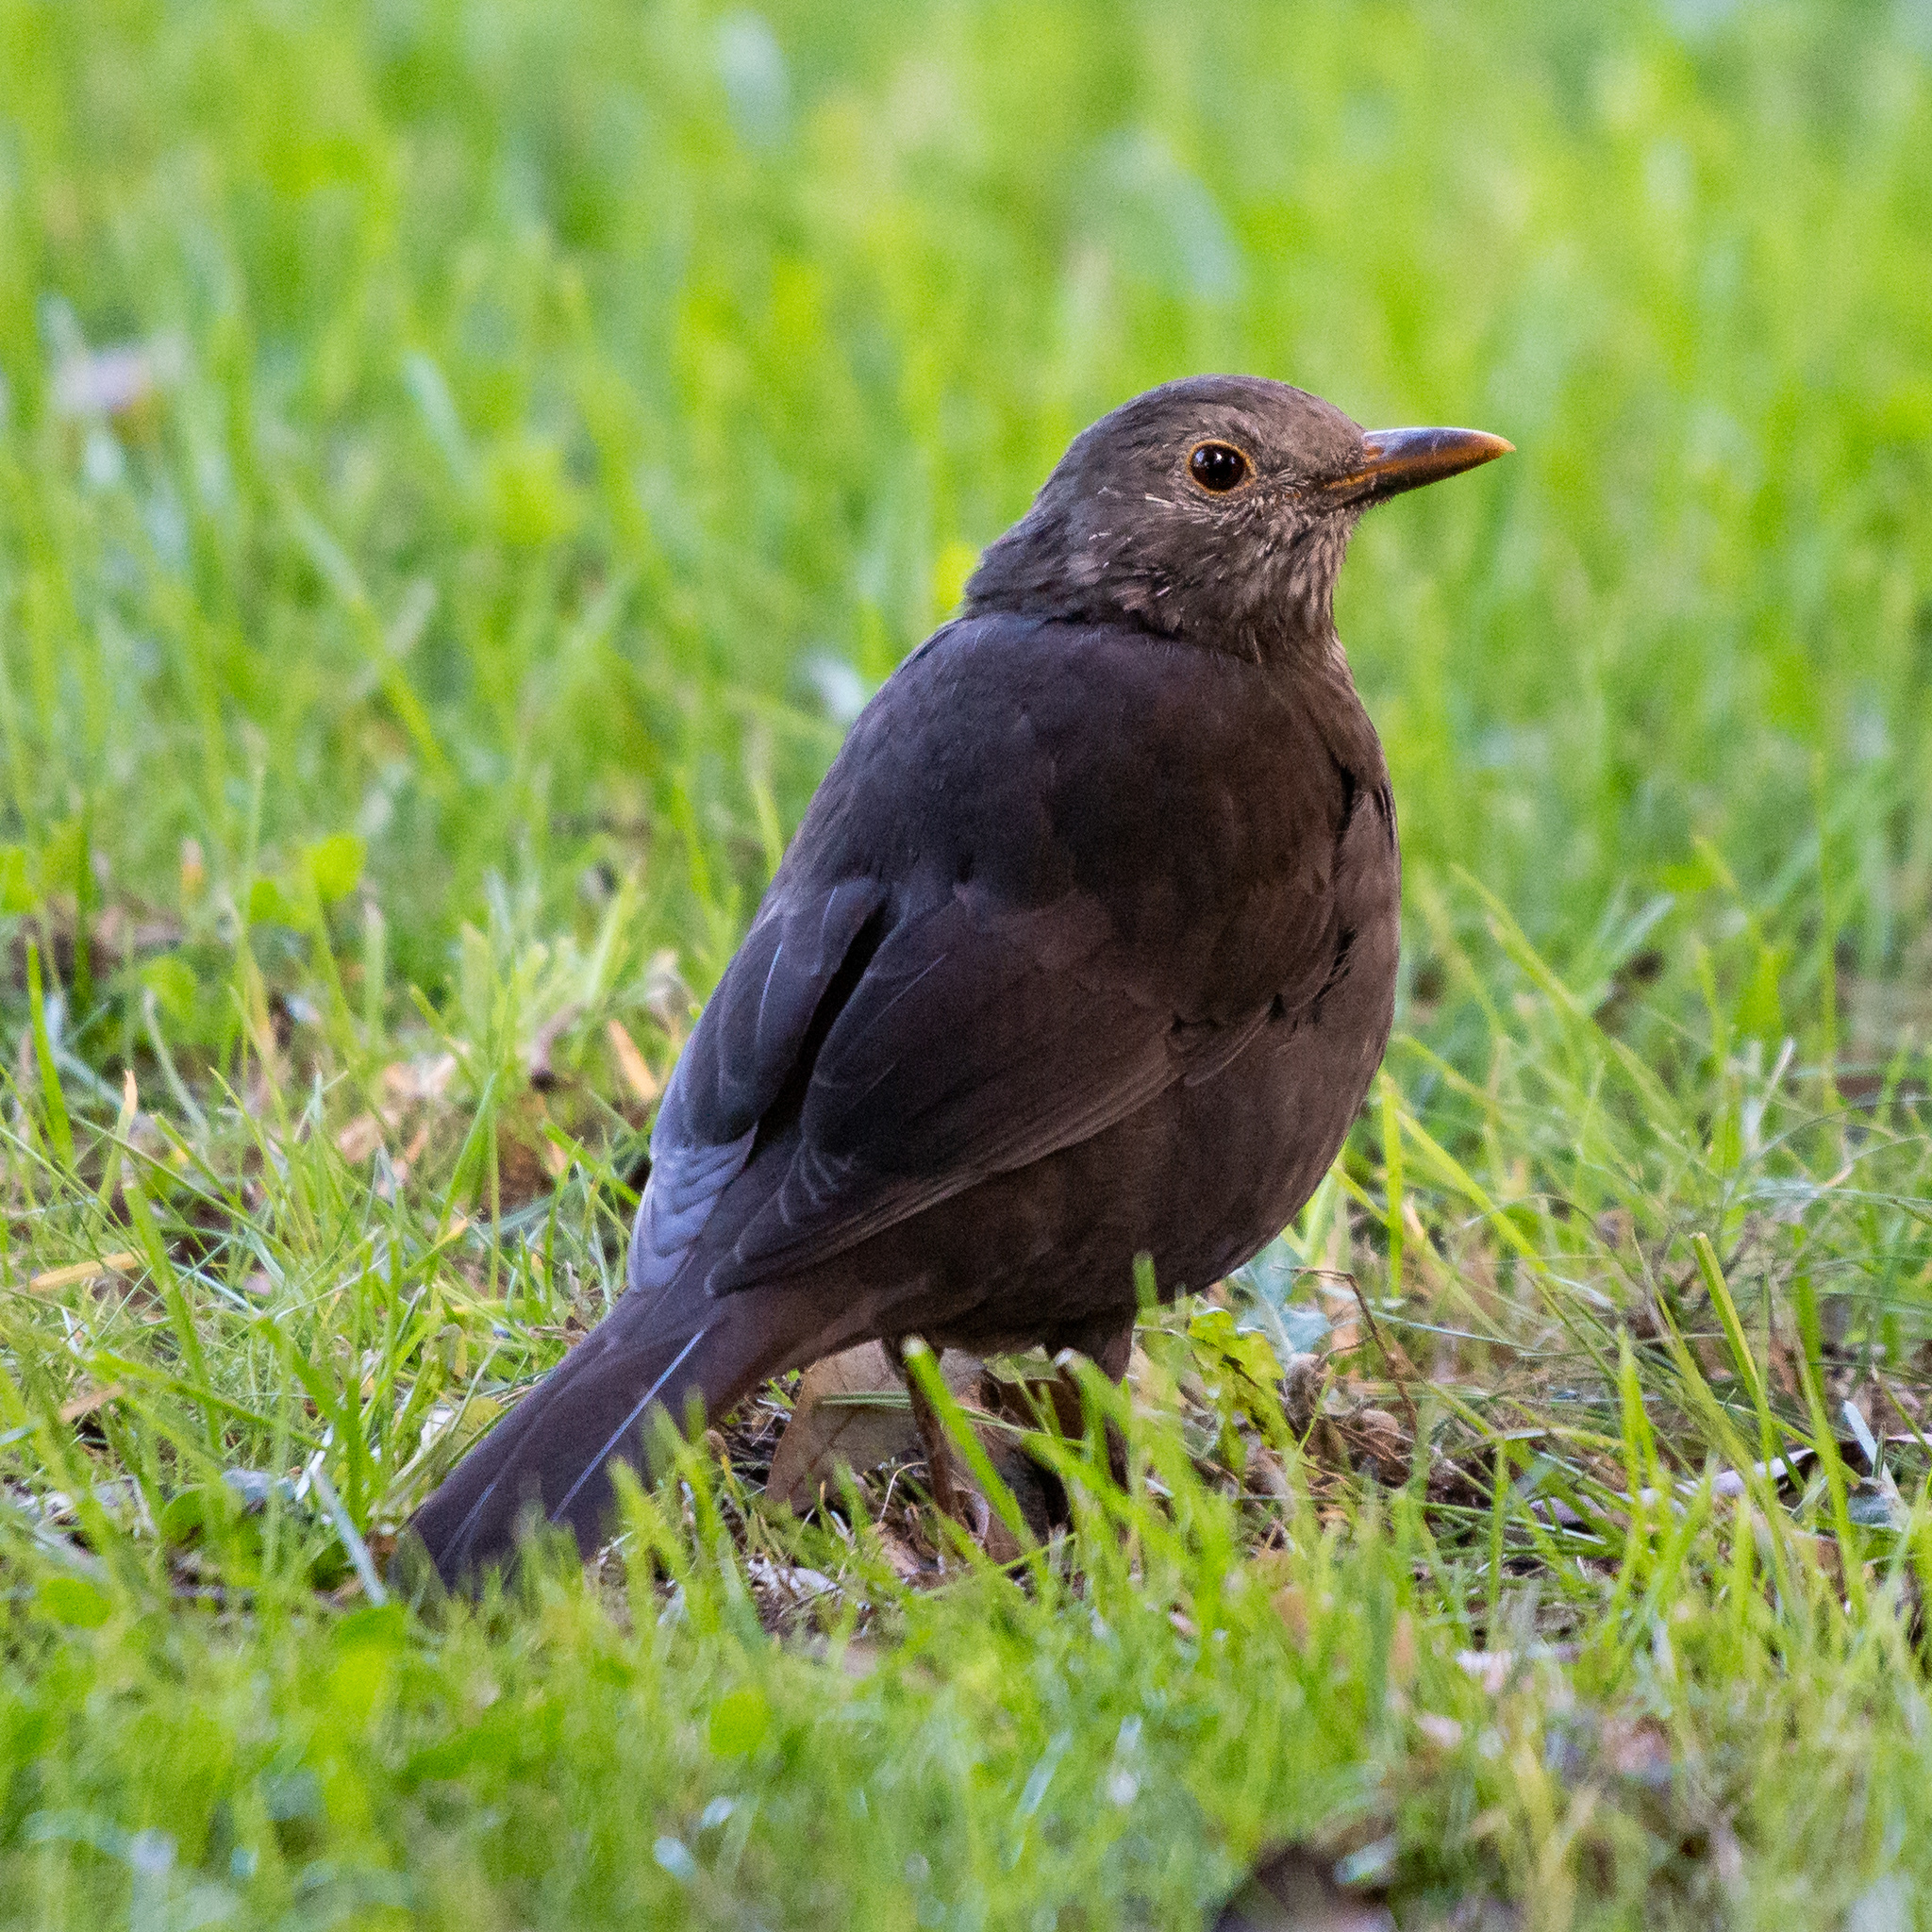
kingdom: Animalia
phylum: Chordata
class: Aves
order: Passeriformes
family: Turdidae
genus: Turdus
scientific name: Turdus merula
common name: Common blackbird
